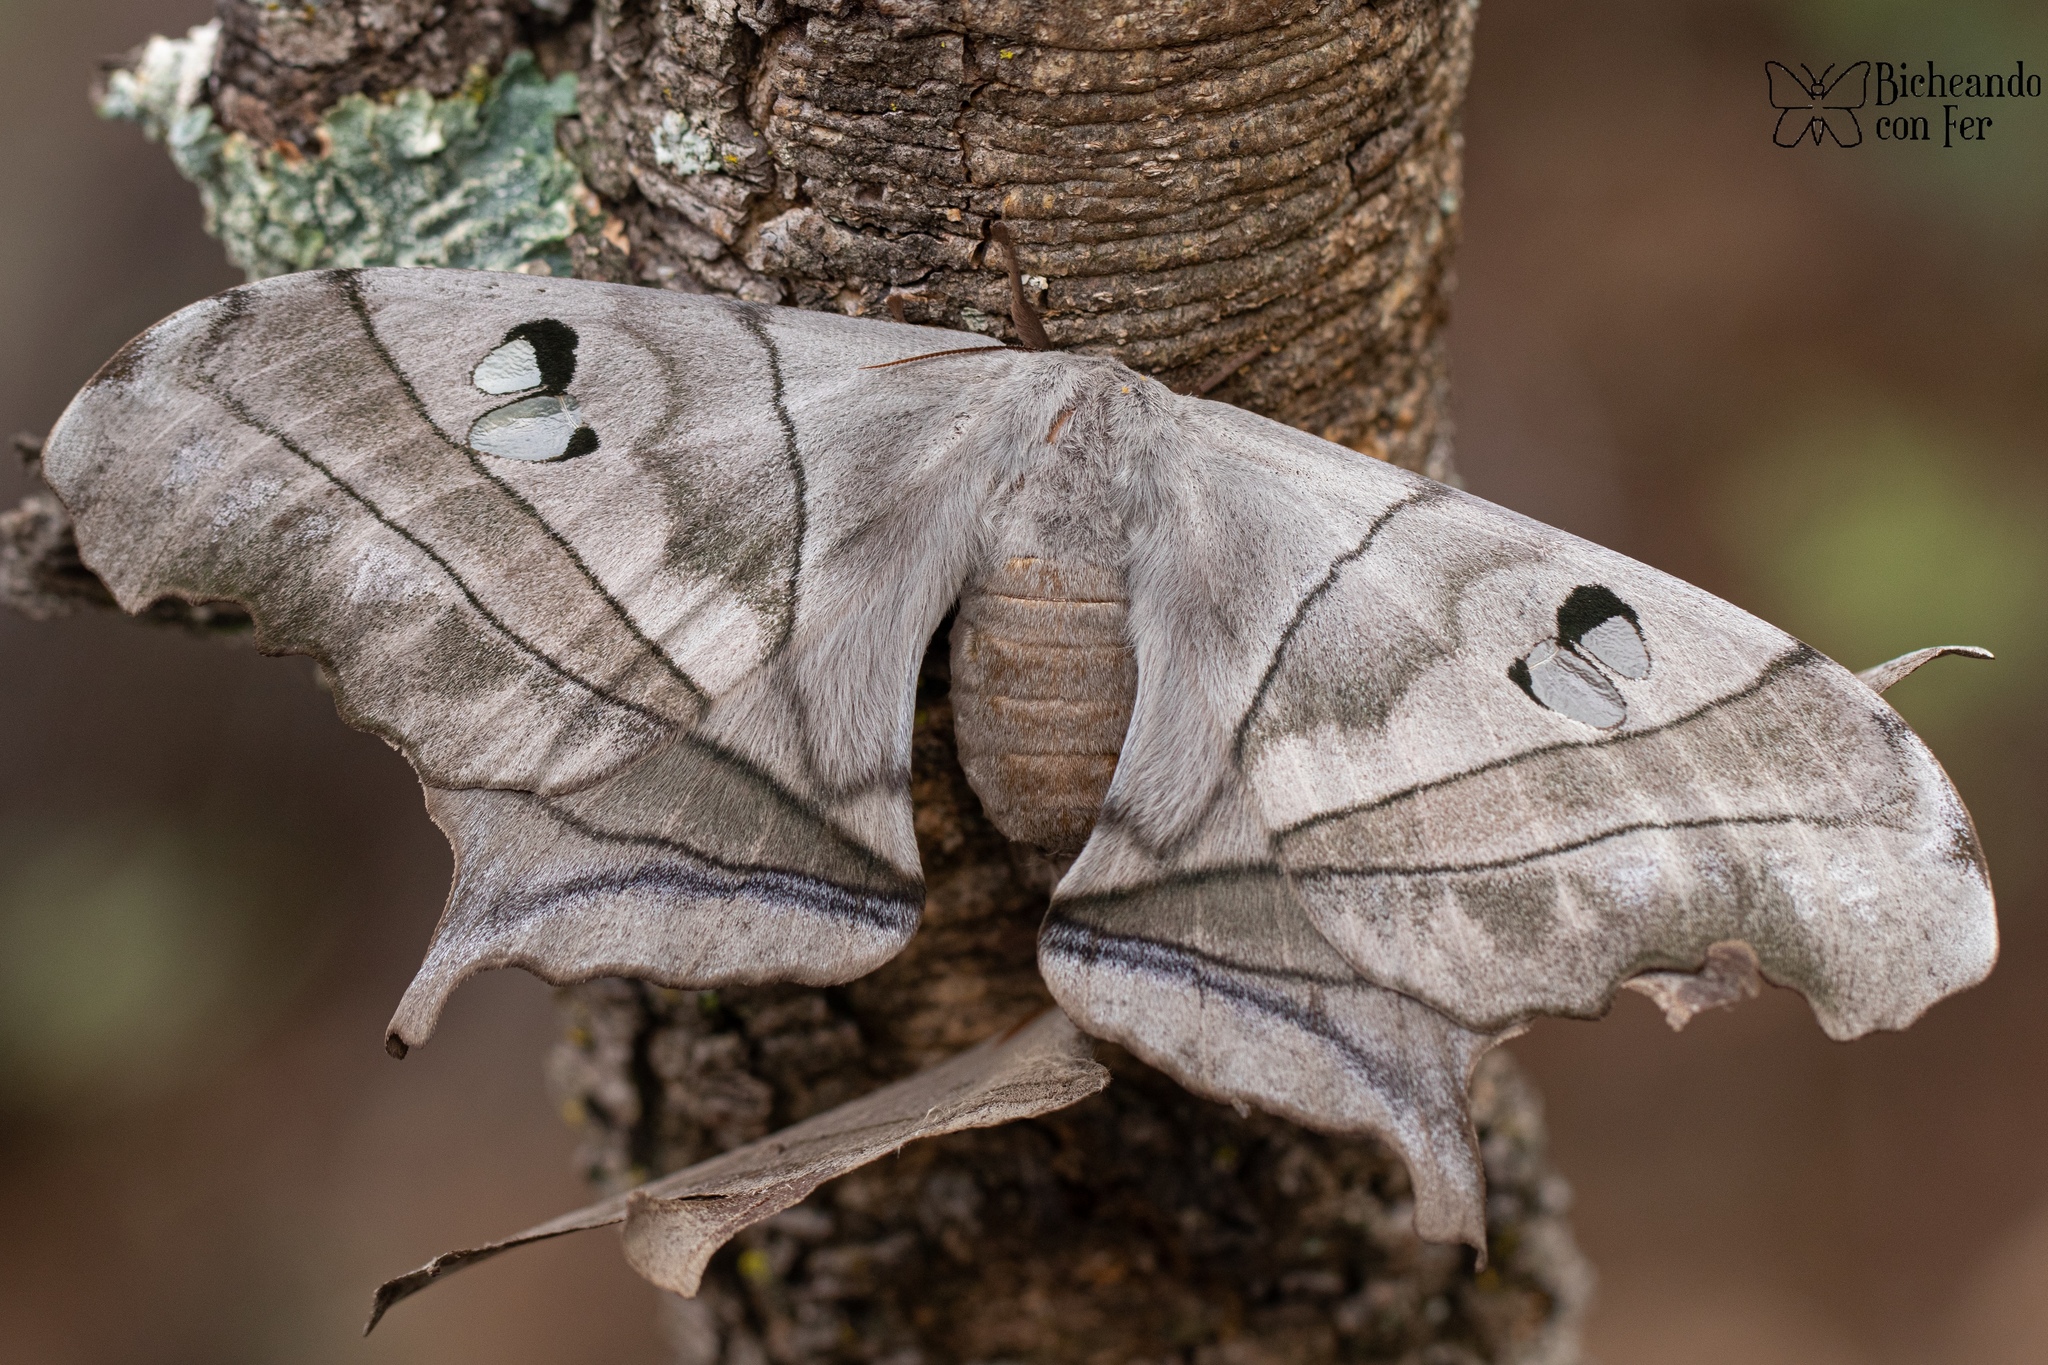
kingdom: Animalia
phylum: Arthropoda
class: Insecta
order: Lepidoptera
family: Saturniidae
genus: Dysdaemonia
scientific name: Dysdaemonia boreas
